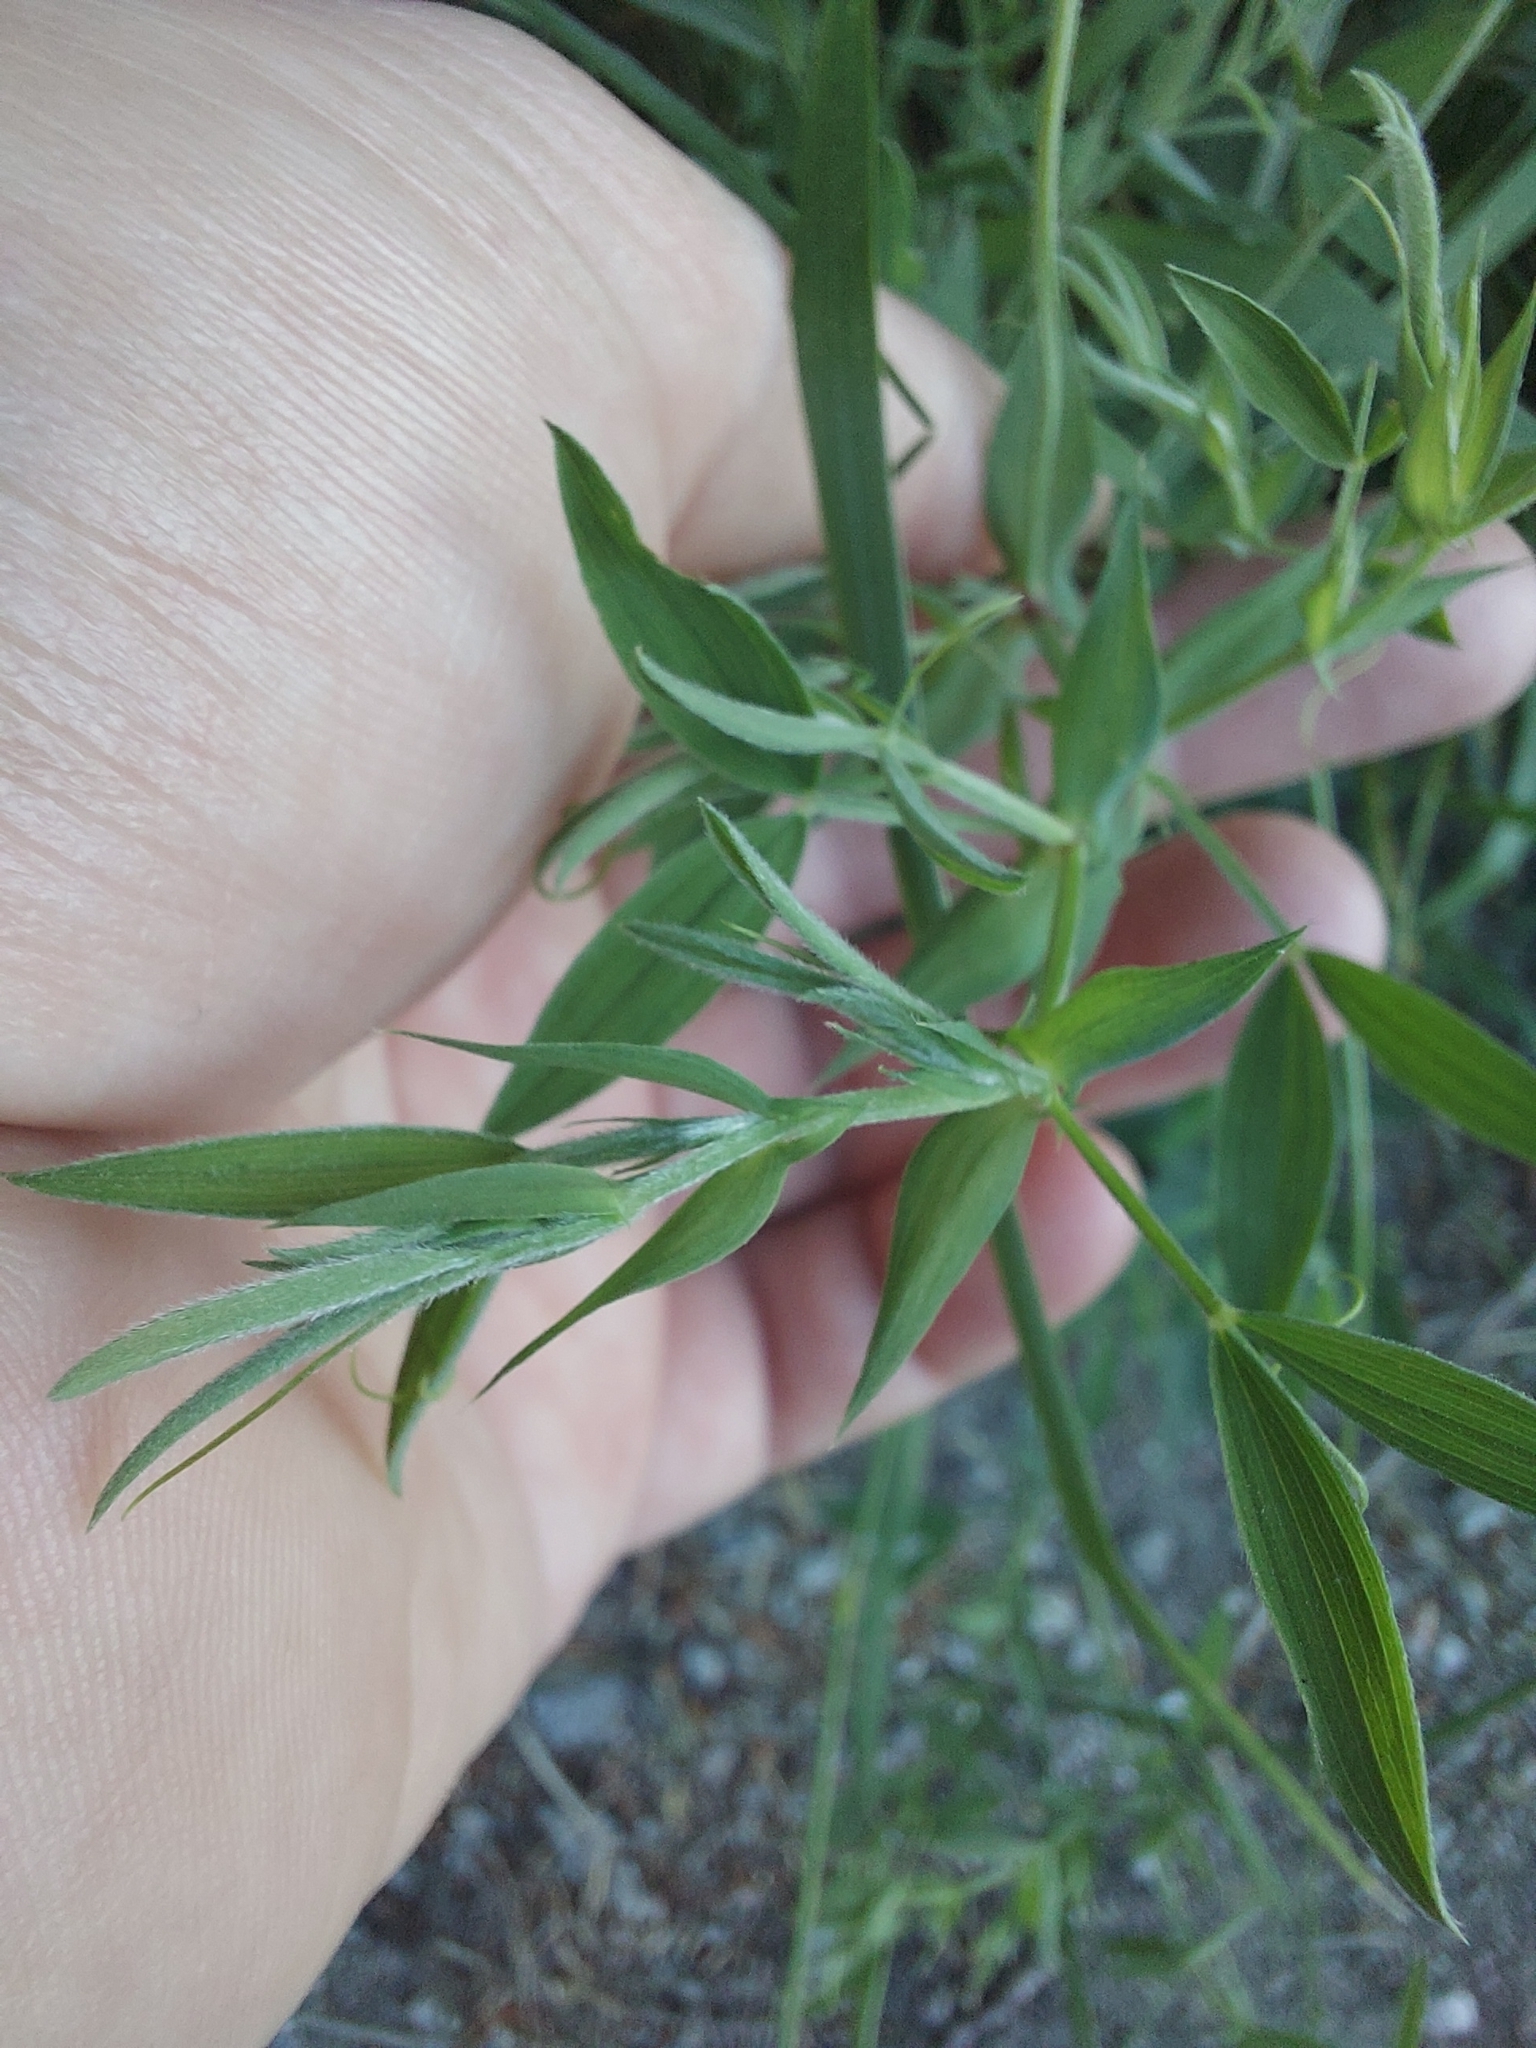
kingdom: Plantae
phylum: Tracheophyta
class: Magnoliopsida
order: Fabales
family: Fabaceae
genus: Lathyrus
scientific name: Lathyrus pratensis
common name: Meadow vetchling
